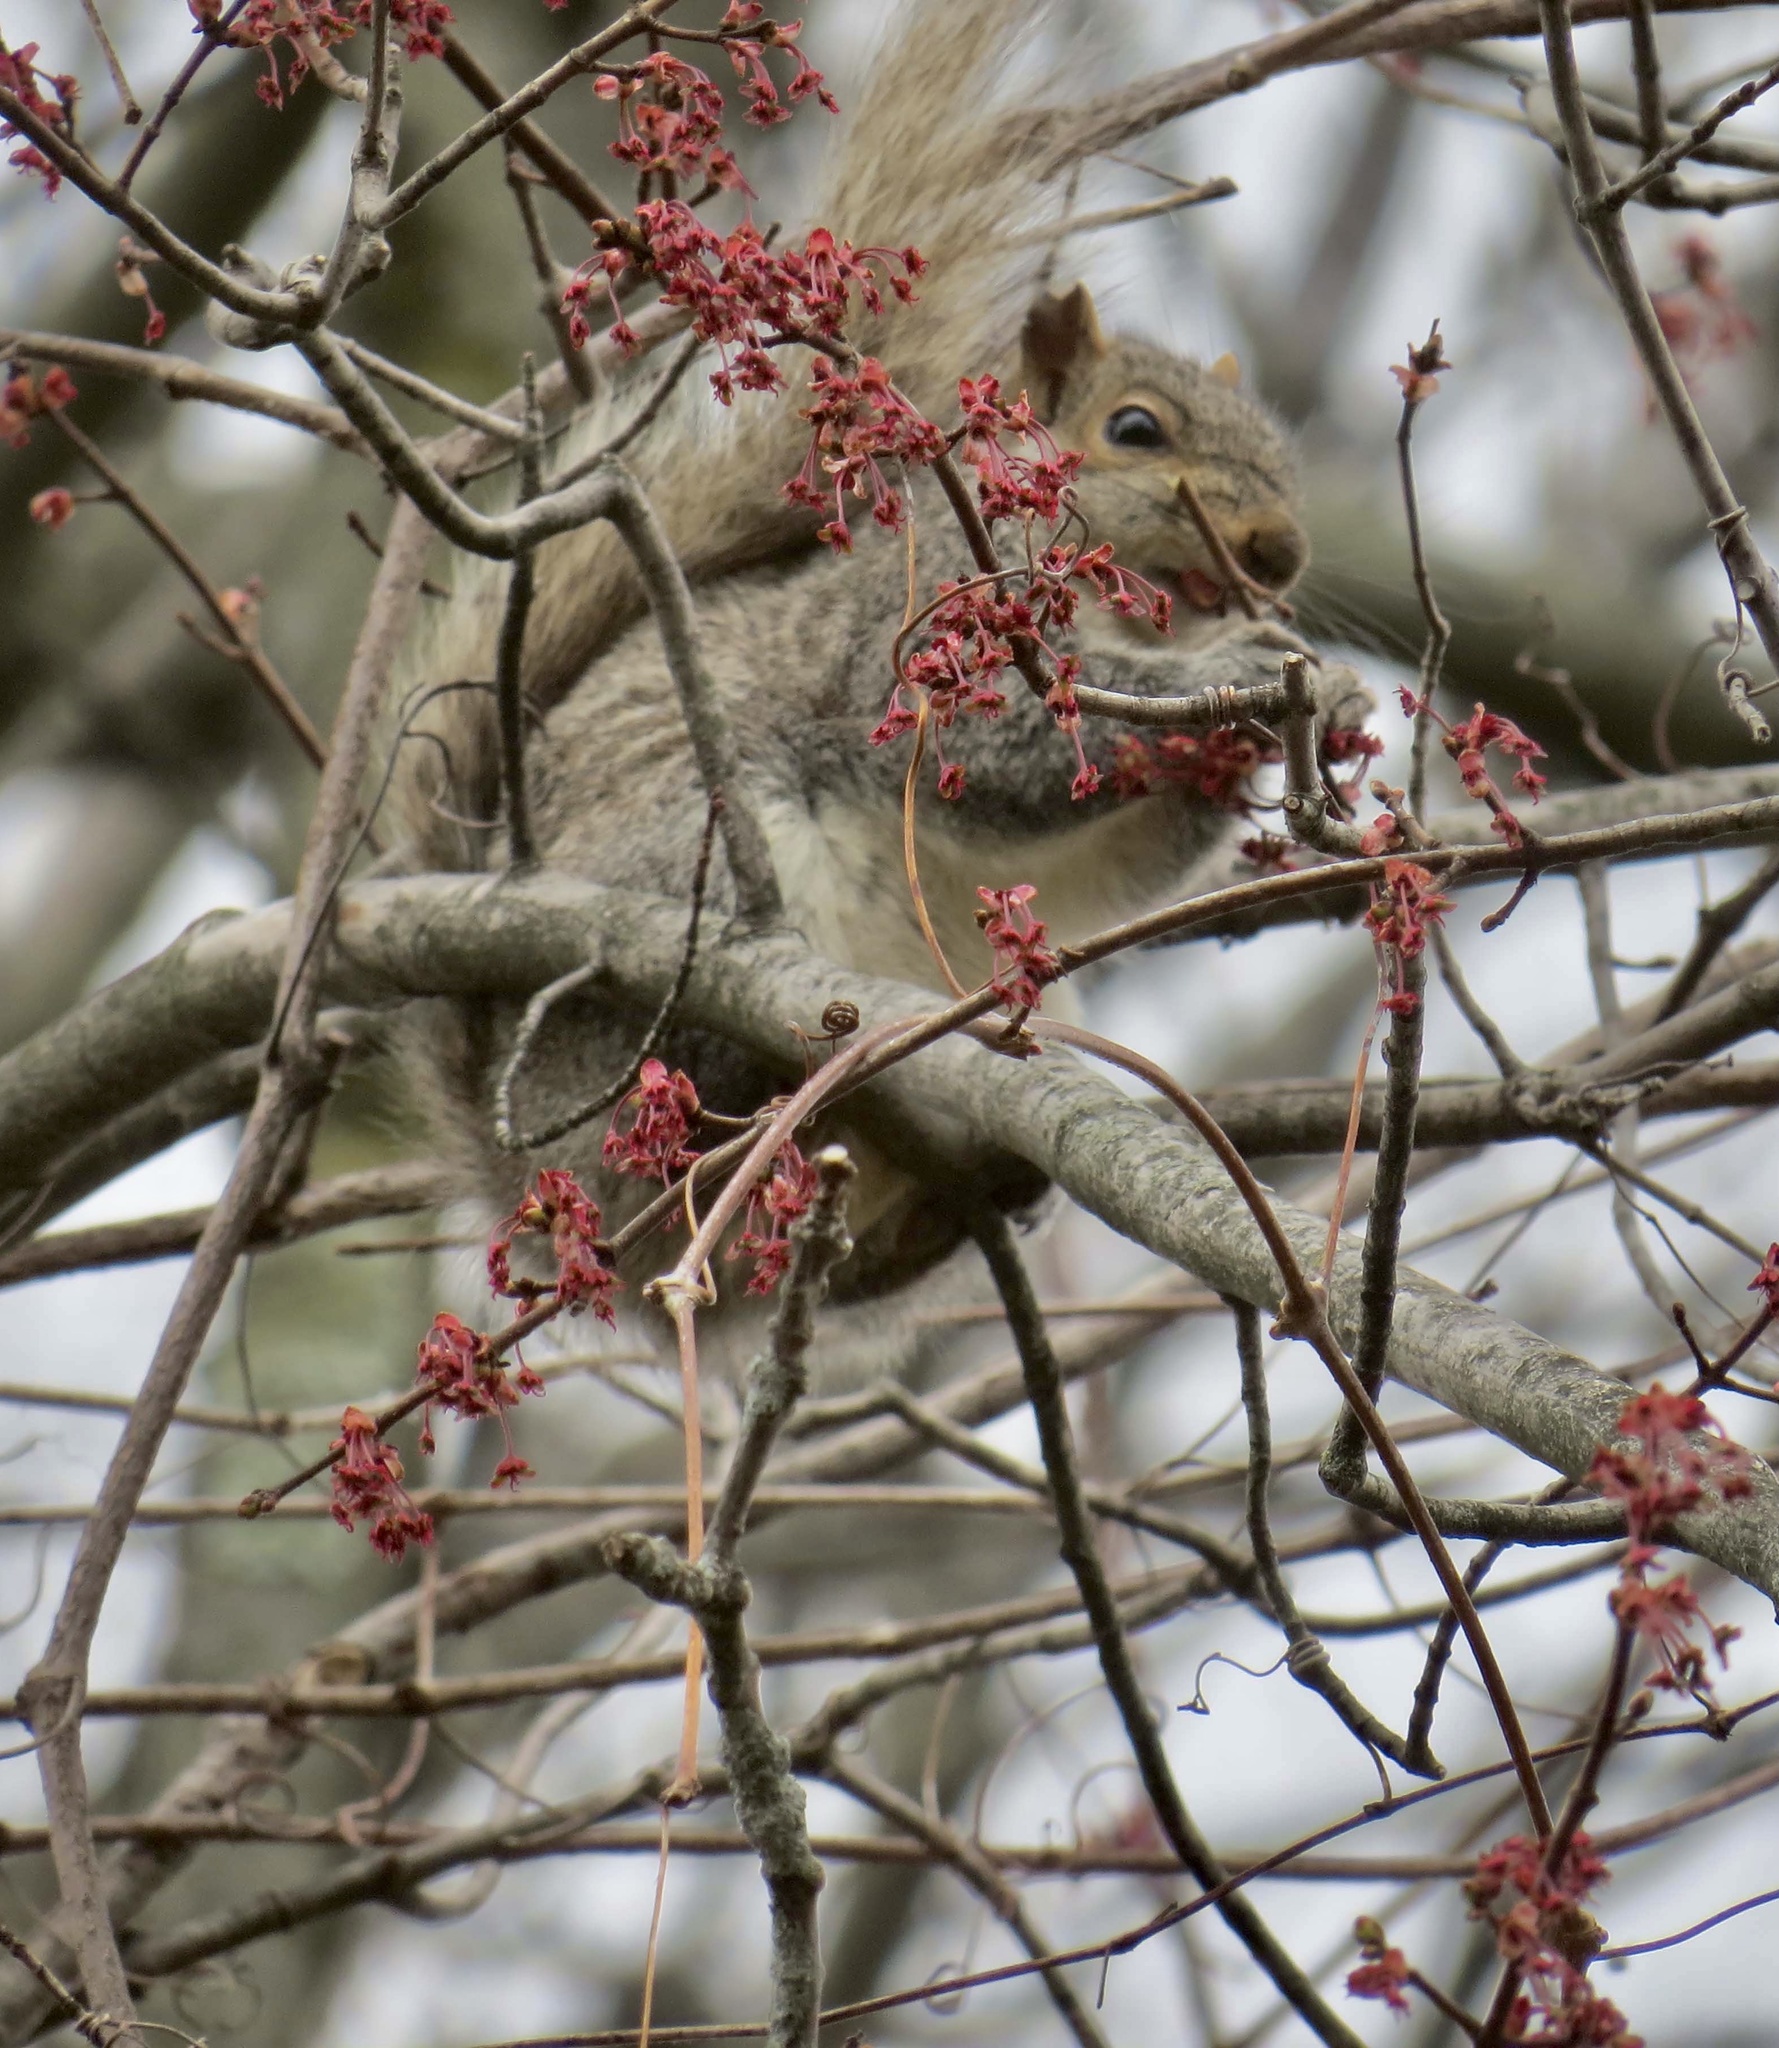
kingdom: Animalia
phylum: Chordata
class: Mammalia
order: Rodentia
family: Sciuridae
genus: Sciurus
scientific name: Sciurus carolinensis
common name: Eastern gray squirrel
